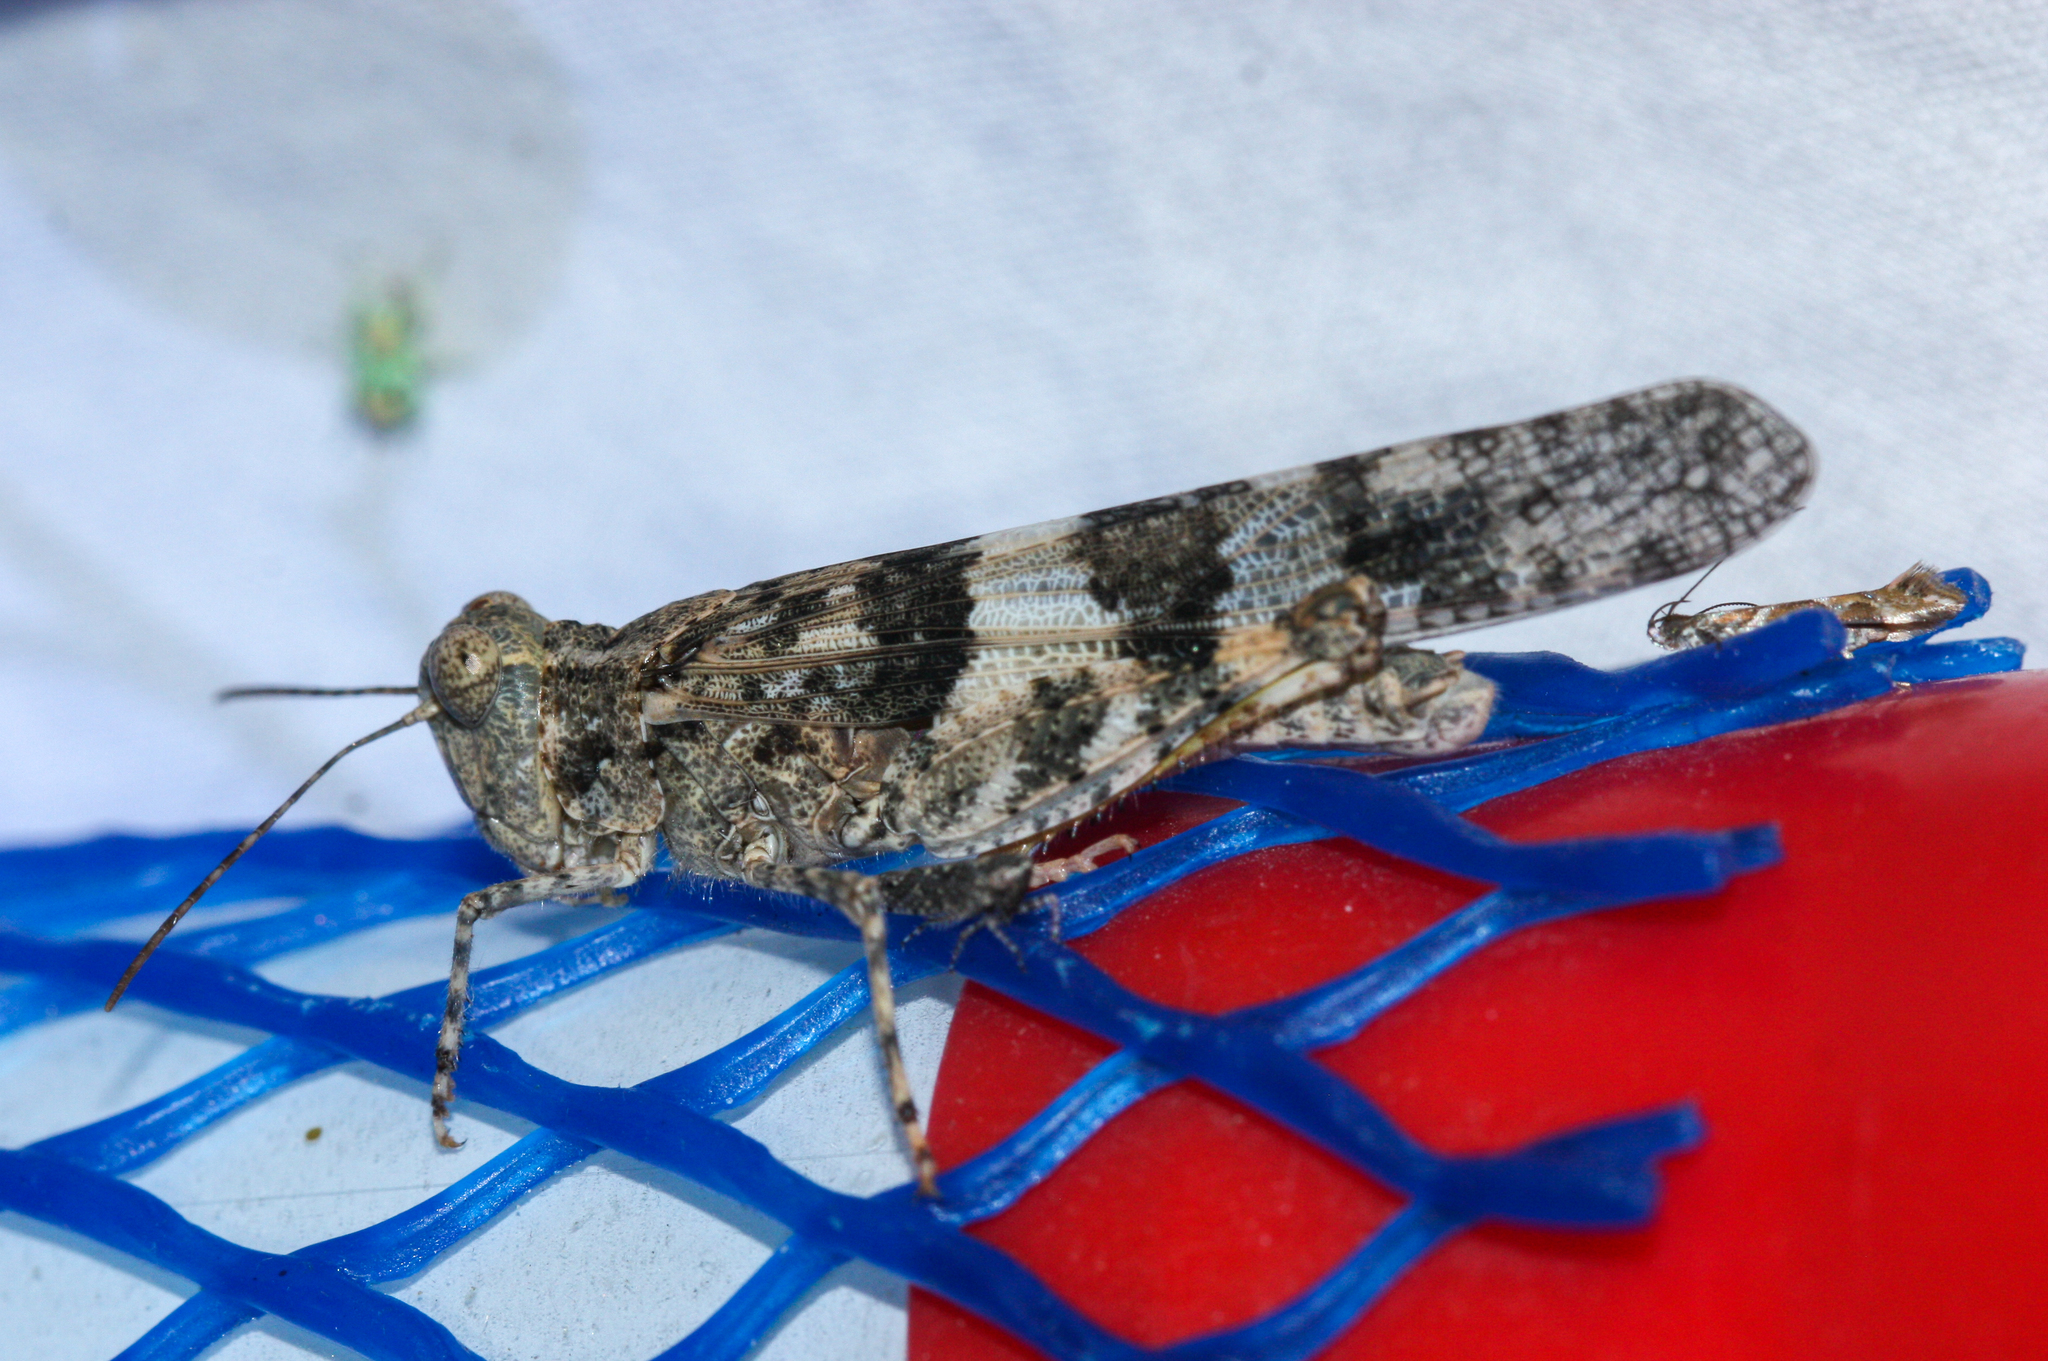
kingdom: Animalia
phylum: Arthropoda
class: Insecta
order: Orthoptera
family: Acrididae
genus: Trimerotropis
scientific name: Trimerotropis pallidipennis
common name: Pallid-winged grasshopper
